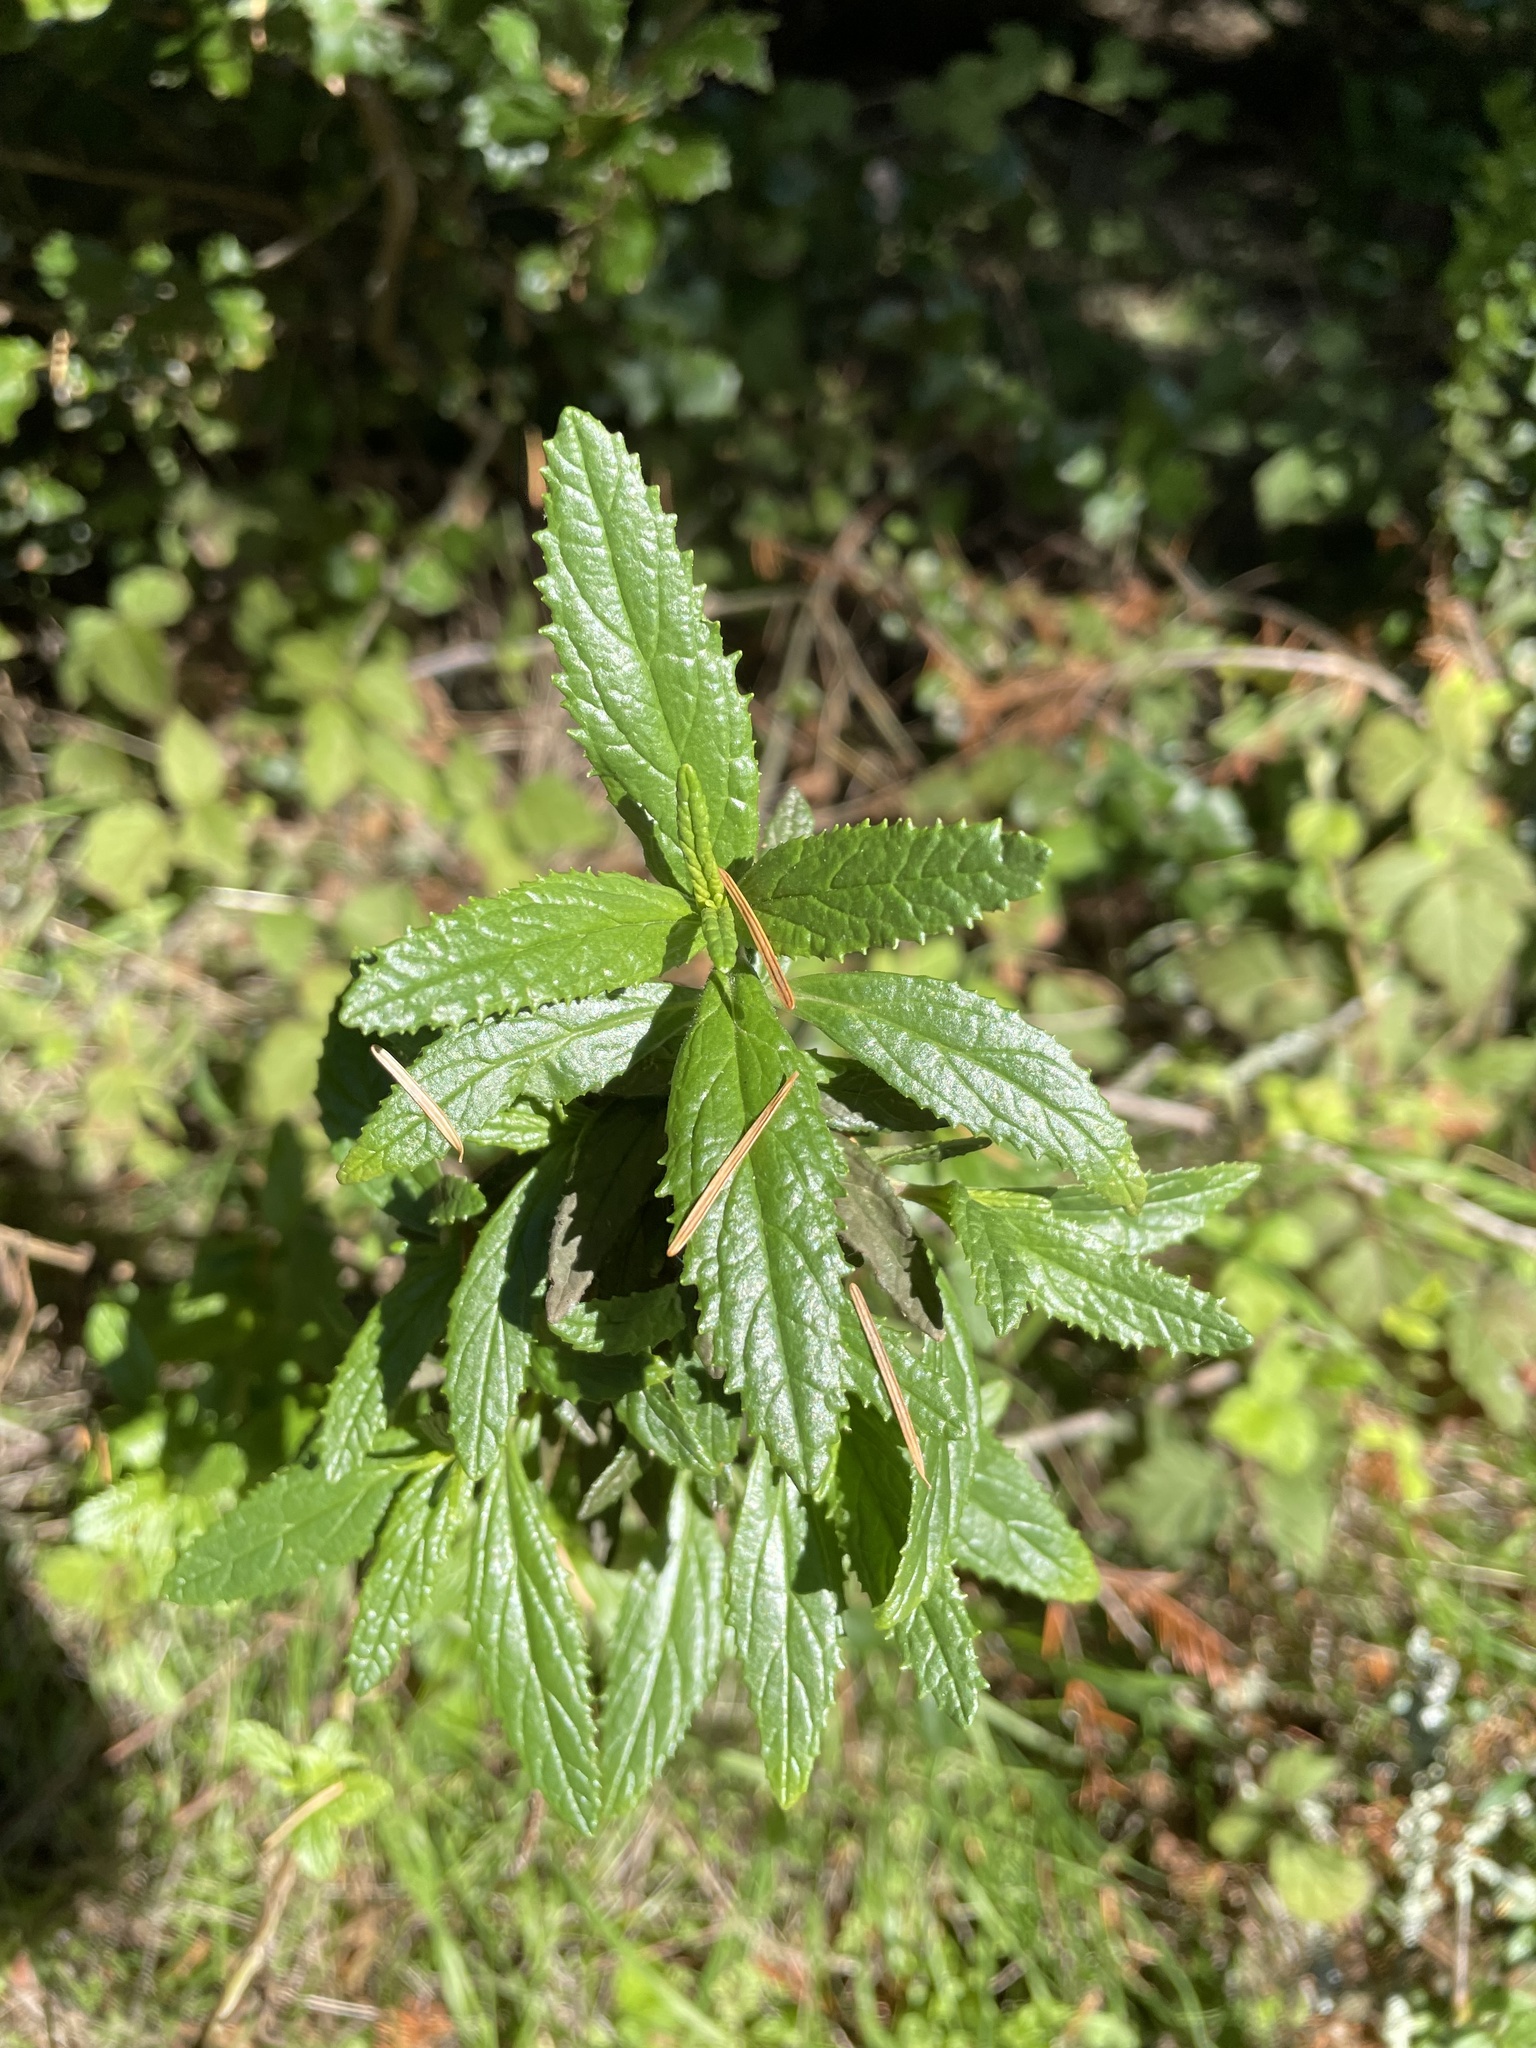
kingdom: Plantae
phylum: Tracheophyta
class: Magnoliopsida
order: Lamiales
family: Phrymaceae
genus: Diplacus
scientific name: Diplacus aurantiacus
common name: Bush monkey-flower
